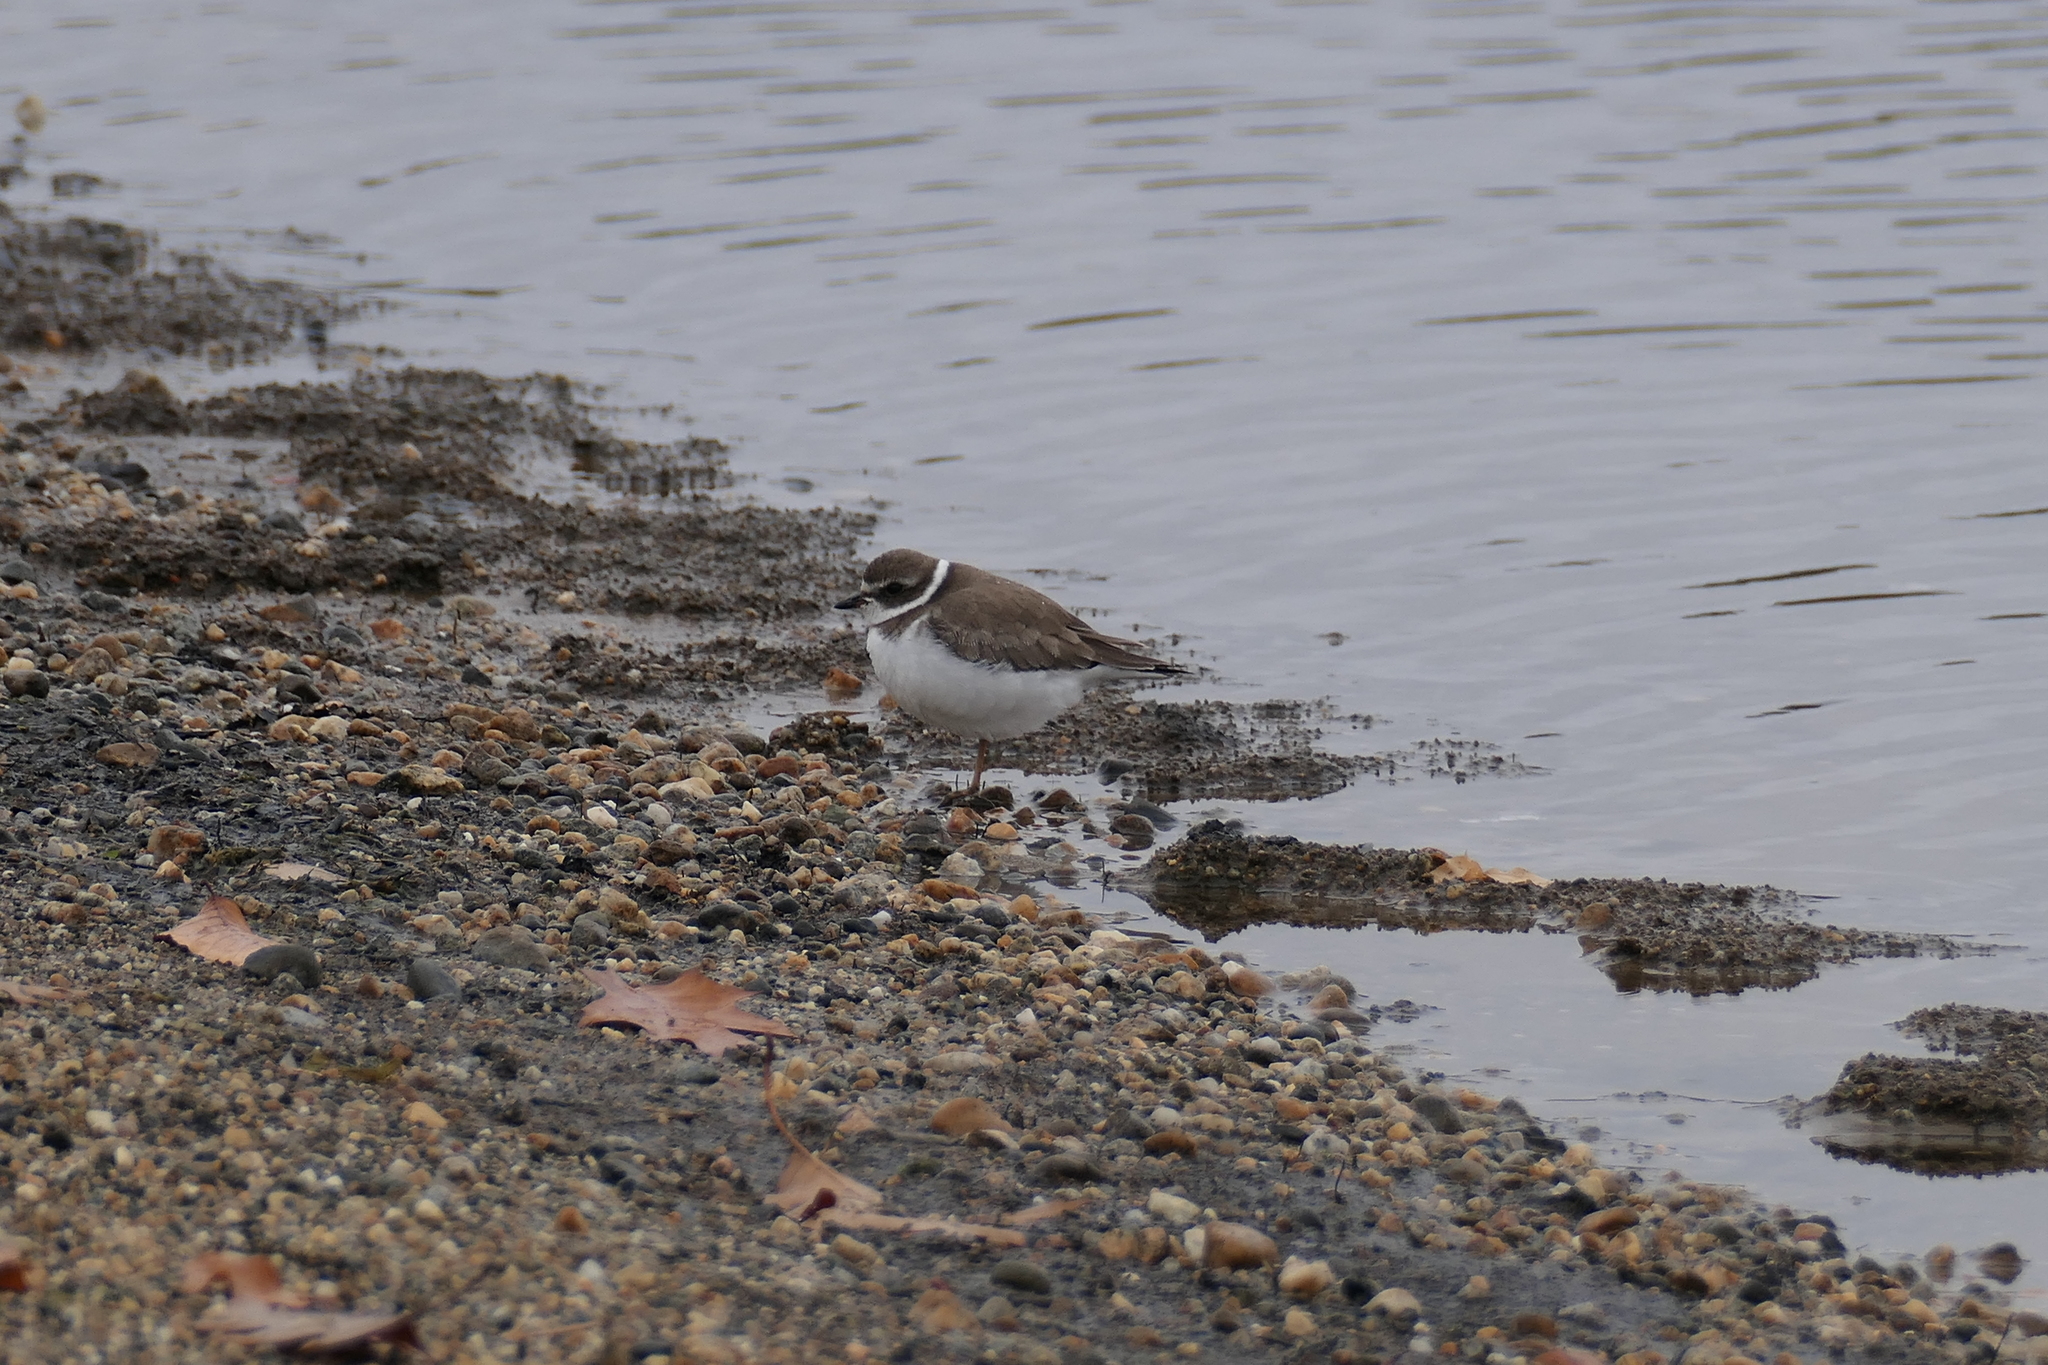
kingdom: Animalia
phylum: Chordata
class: Aves
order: Charadriiformes
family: Charadriidae
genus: Charadrius
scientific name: Charadrius semipalmatus
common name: Semipalmated plover
